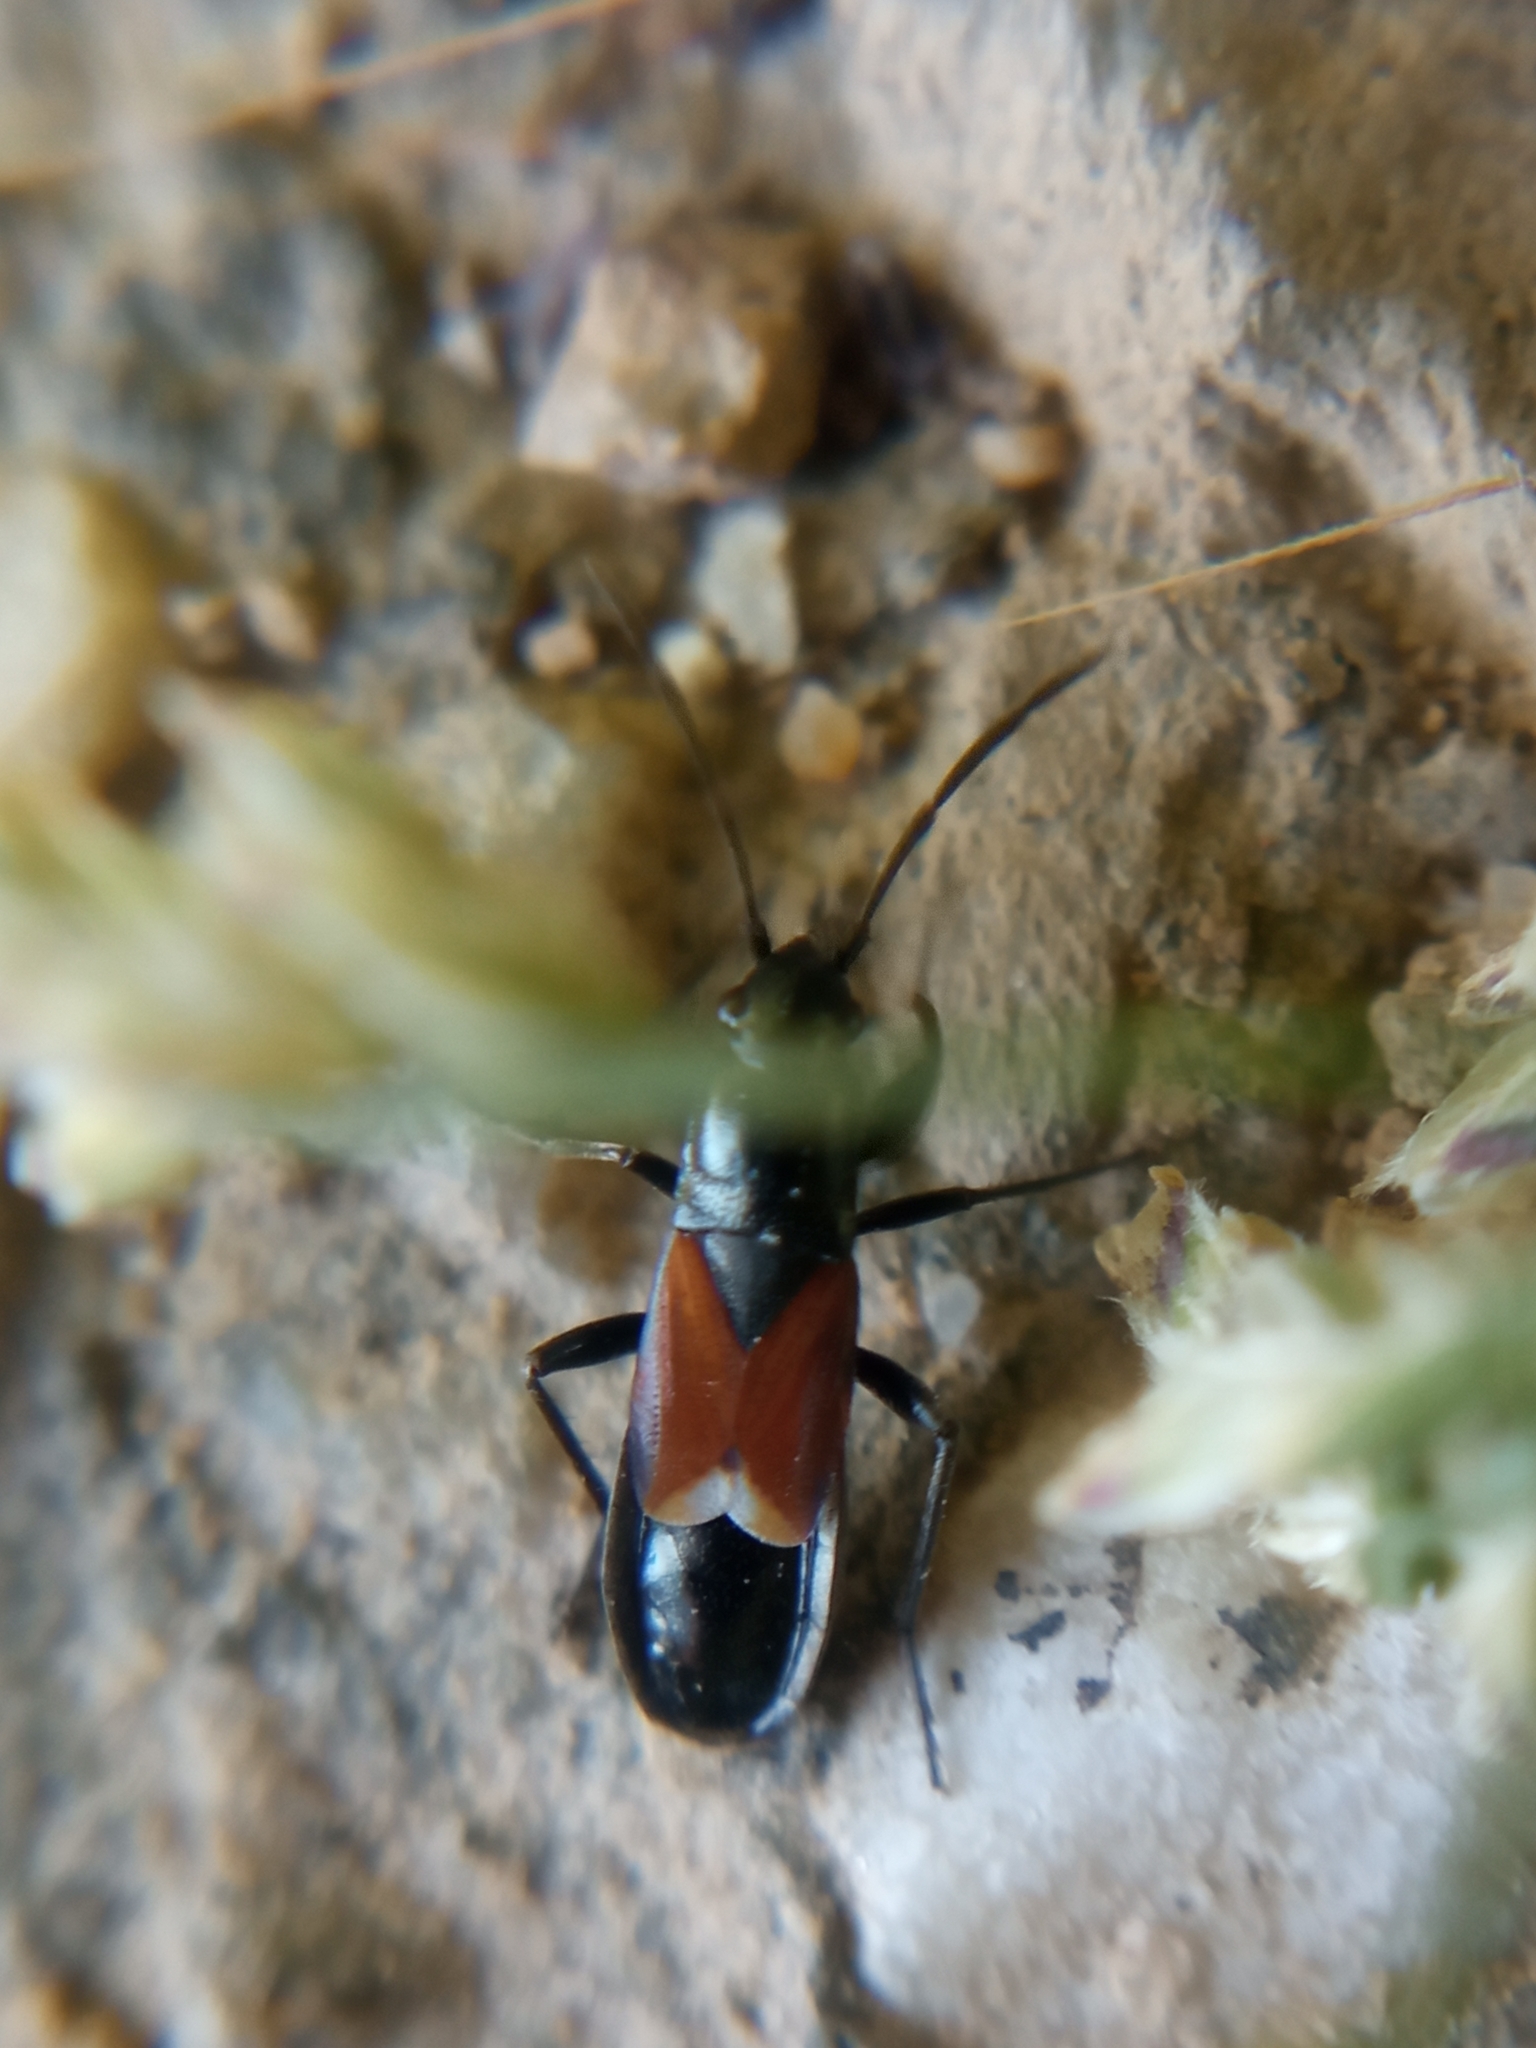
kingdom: Animalia
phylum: Arthropoda
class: Insecta
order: Hemiptera
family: Rhyparochromidae
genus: Pterotmetus
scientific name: Pterotmetus staphyliniformis
